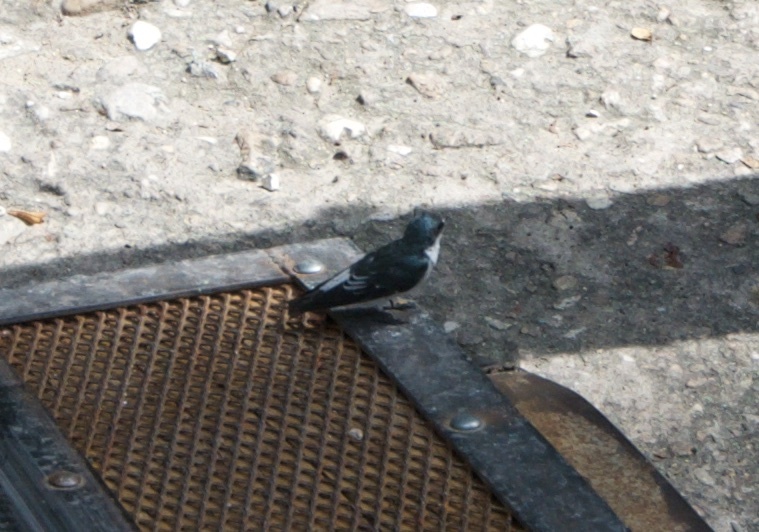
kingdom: Animalia
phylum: Chordata
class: Aves
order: Passeriformes
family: Hirundinidae
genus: Tachycineta
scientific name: Tachycineta albilinea
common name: Mangrove swallow
